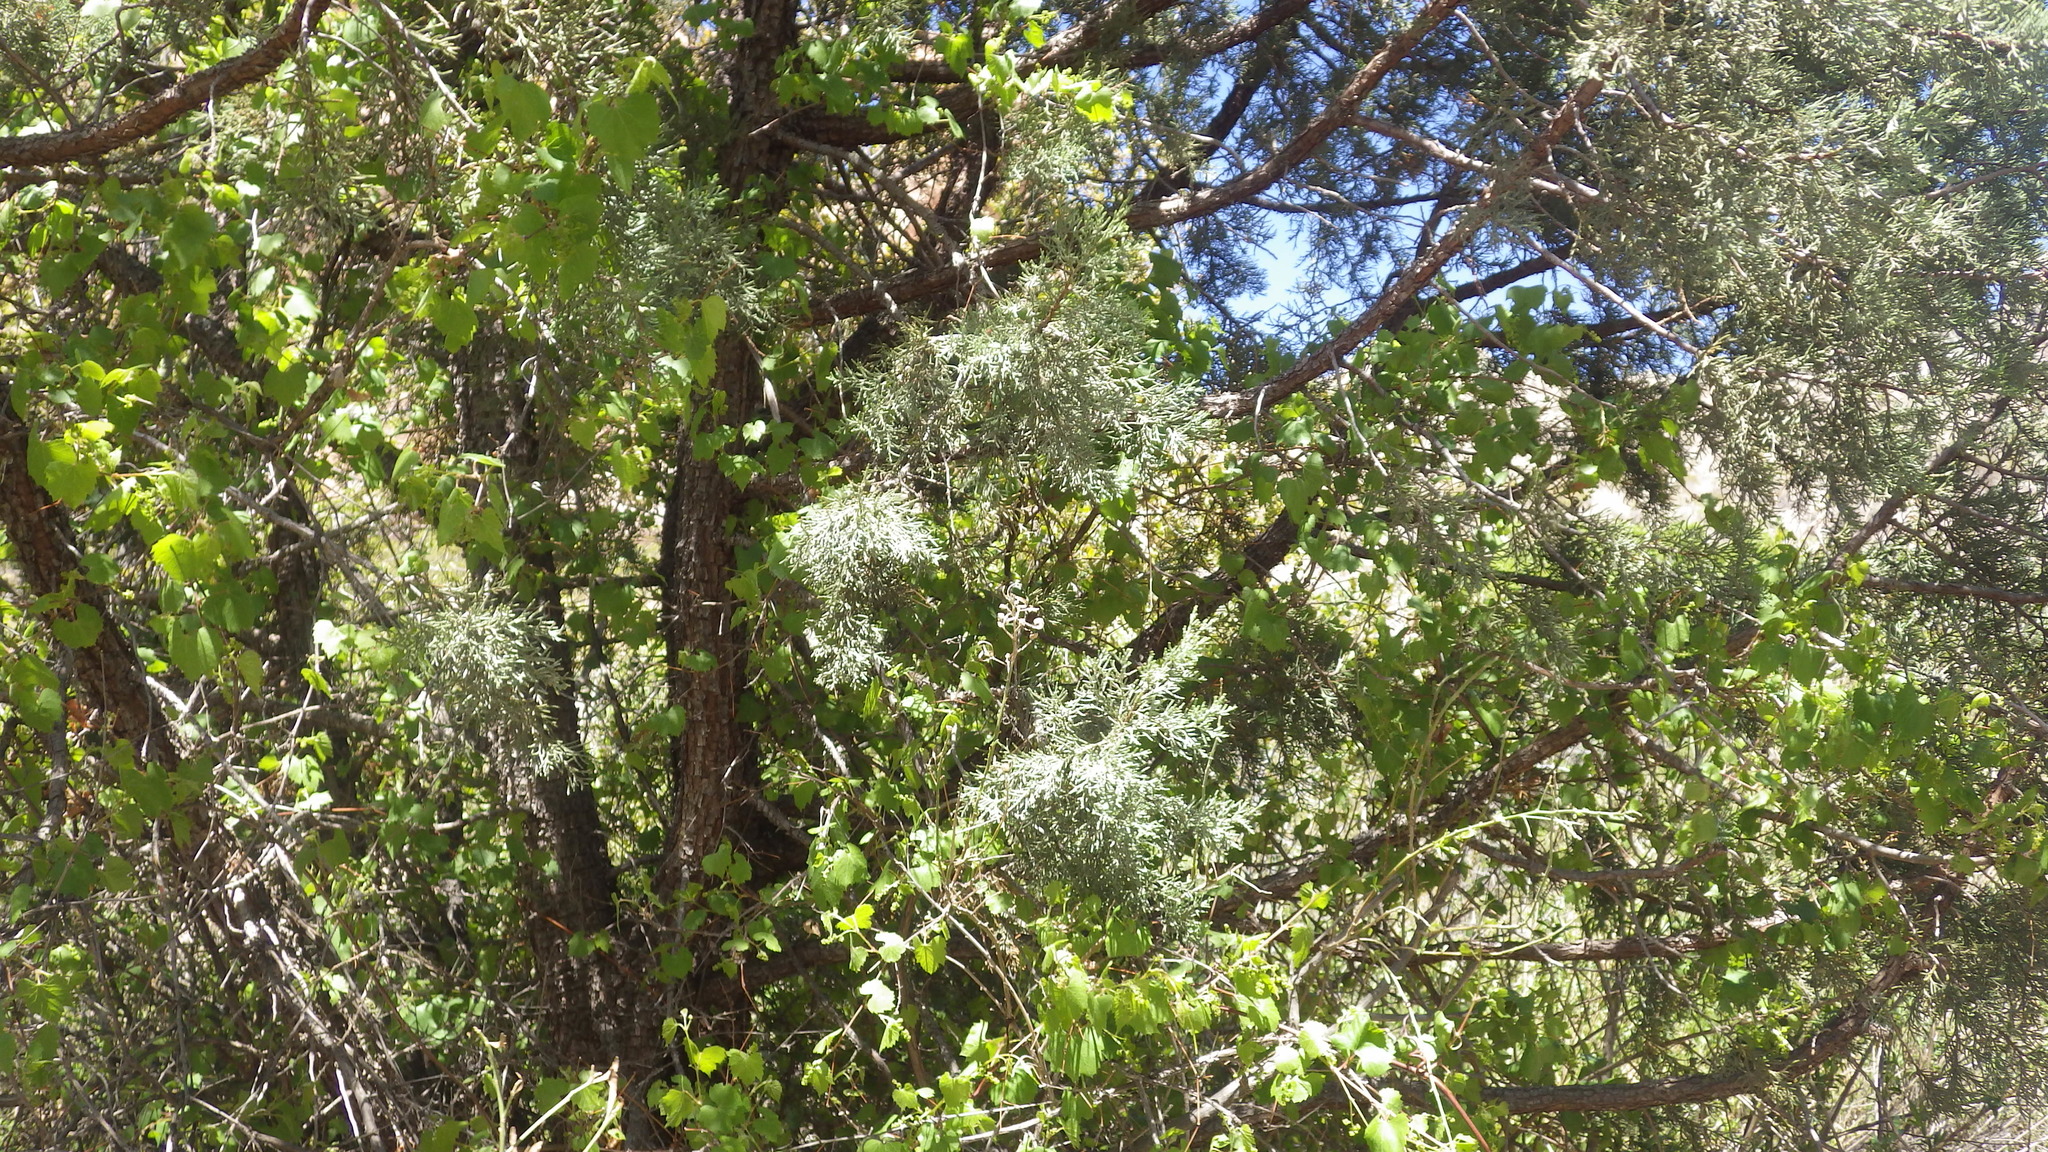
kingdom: Plantae
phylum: Tracheophyta
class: Magnoliopsida
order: Vitales
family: Vitaceae
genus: Vitis
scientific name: Vitis arizonica
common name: Canyon grape
